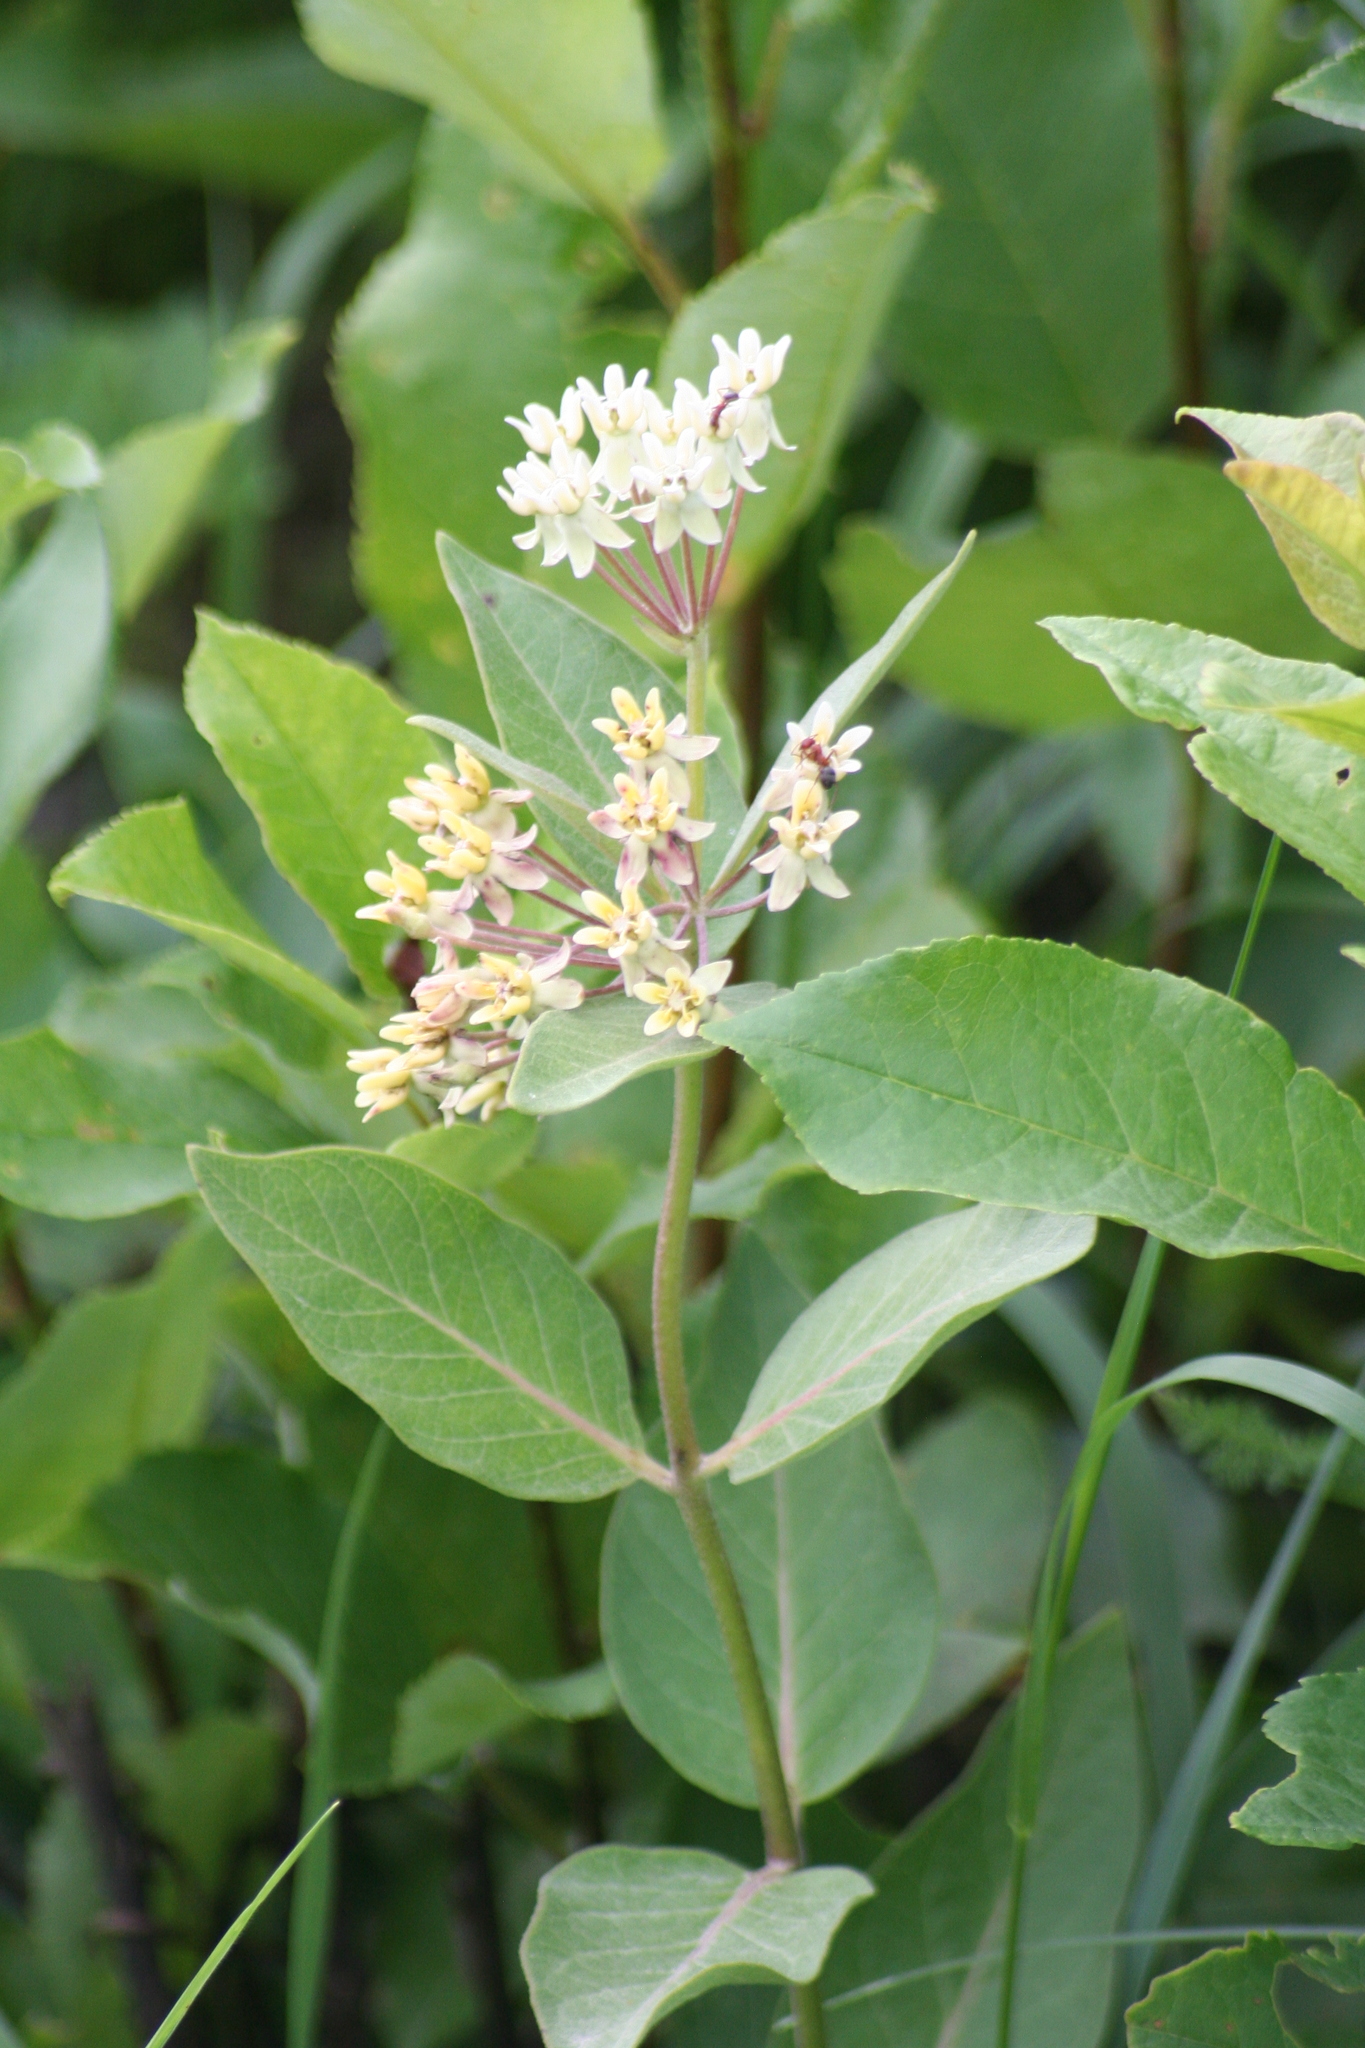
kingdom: Plantae
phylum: Tracheophyta
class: Magnoliopsida
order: Gentianales
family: Apocynaceae
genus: Asclepias
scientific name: Asclepias ovalifolia
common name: Dwarf milkweed
